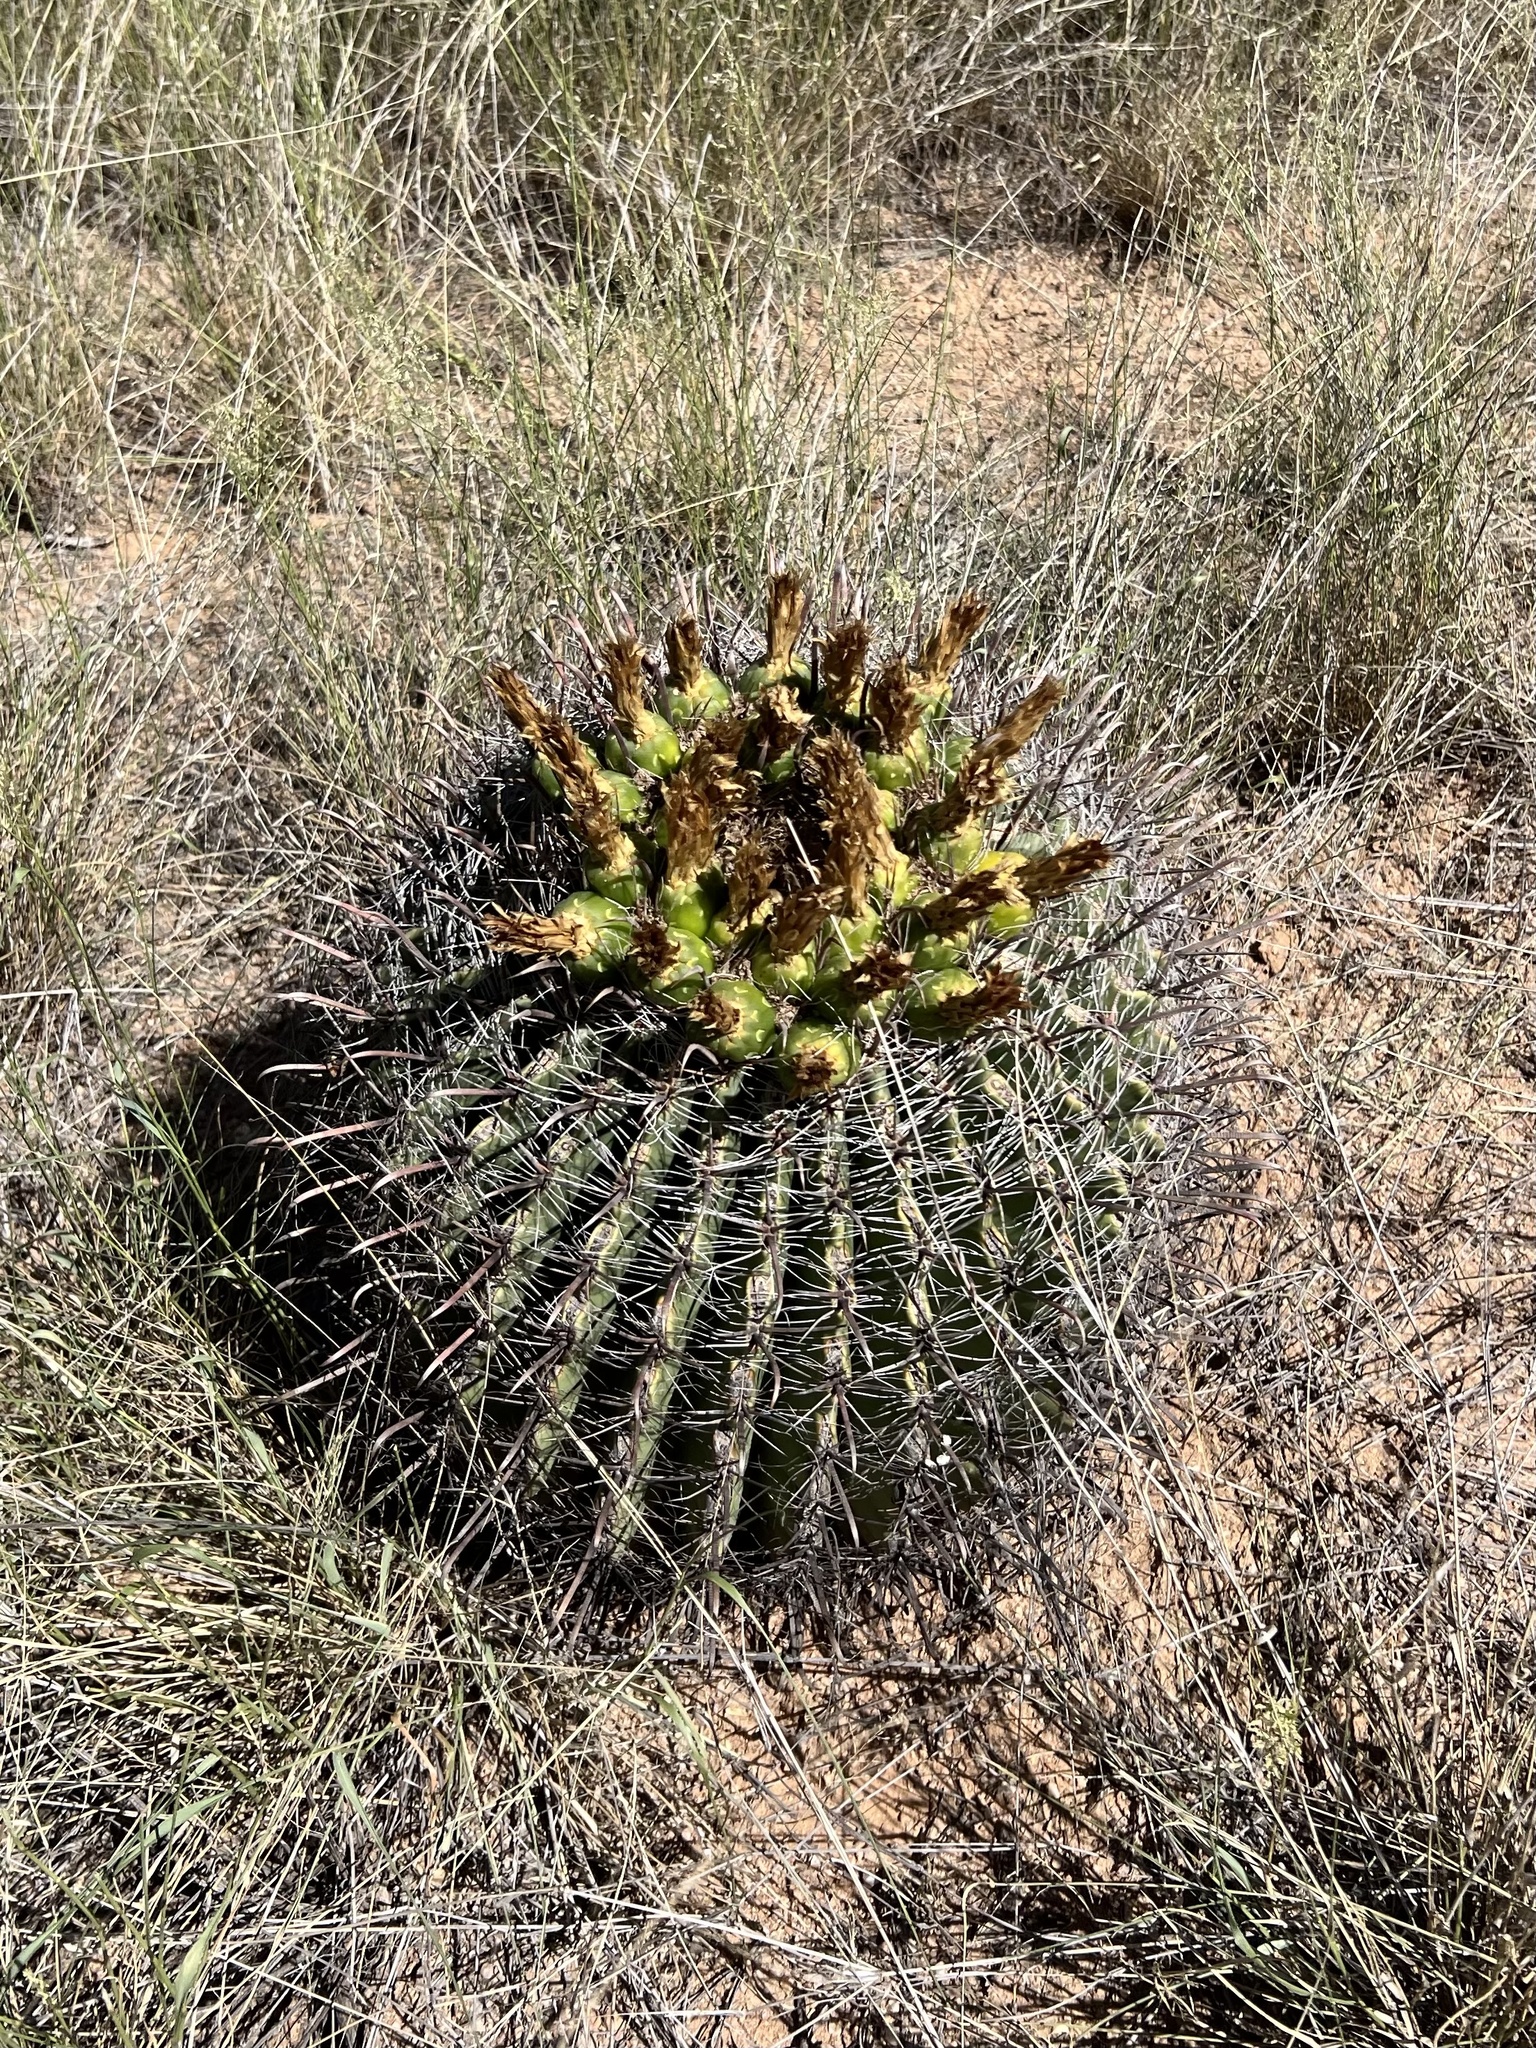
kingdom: Plantae
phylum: Tracheophyta
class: Magnoliopsida
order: Caryophyllales
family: Cactaceae
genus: Ferocactus
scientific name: Ferocactus wislizeni
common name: Candy barrel cactus
